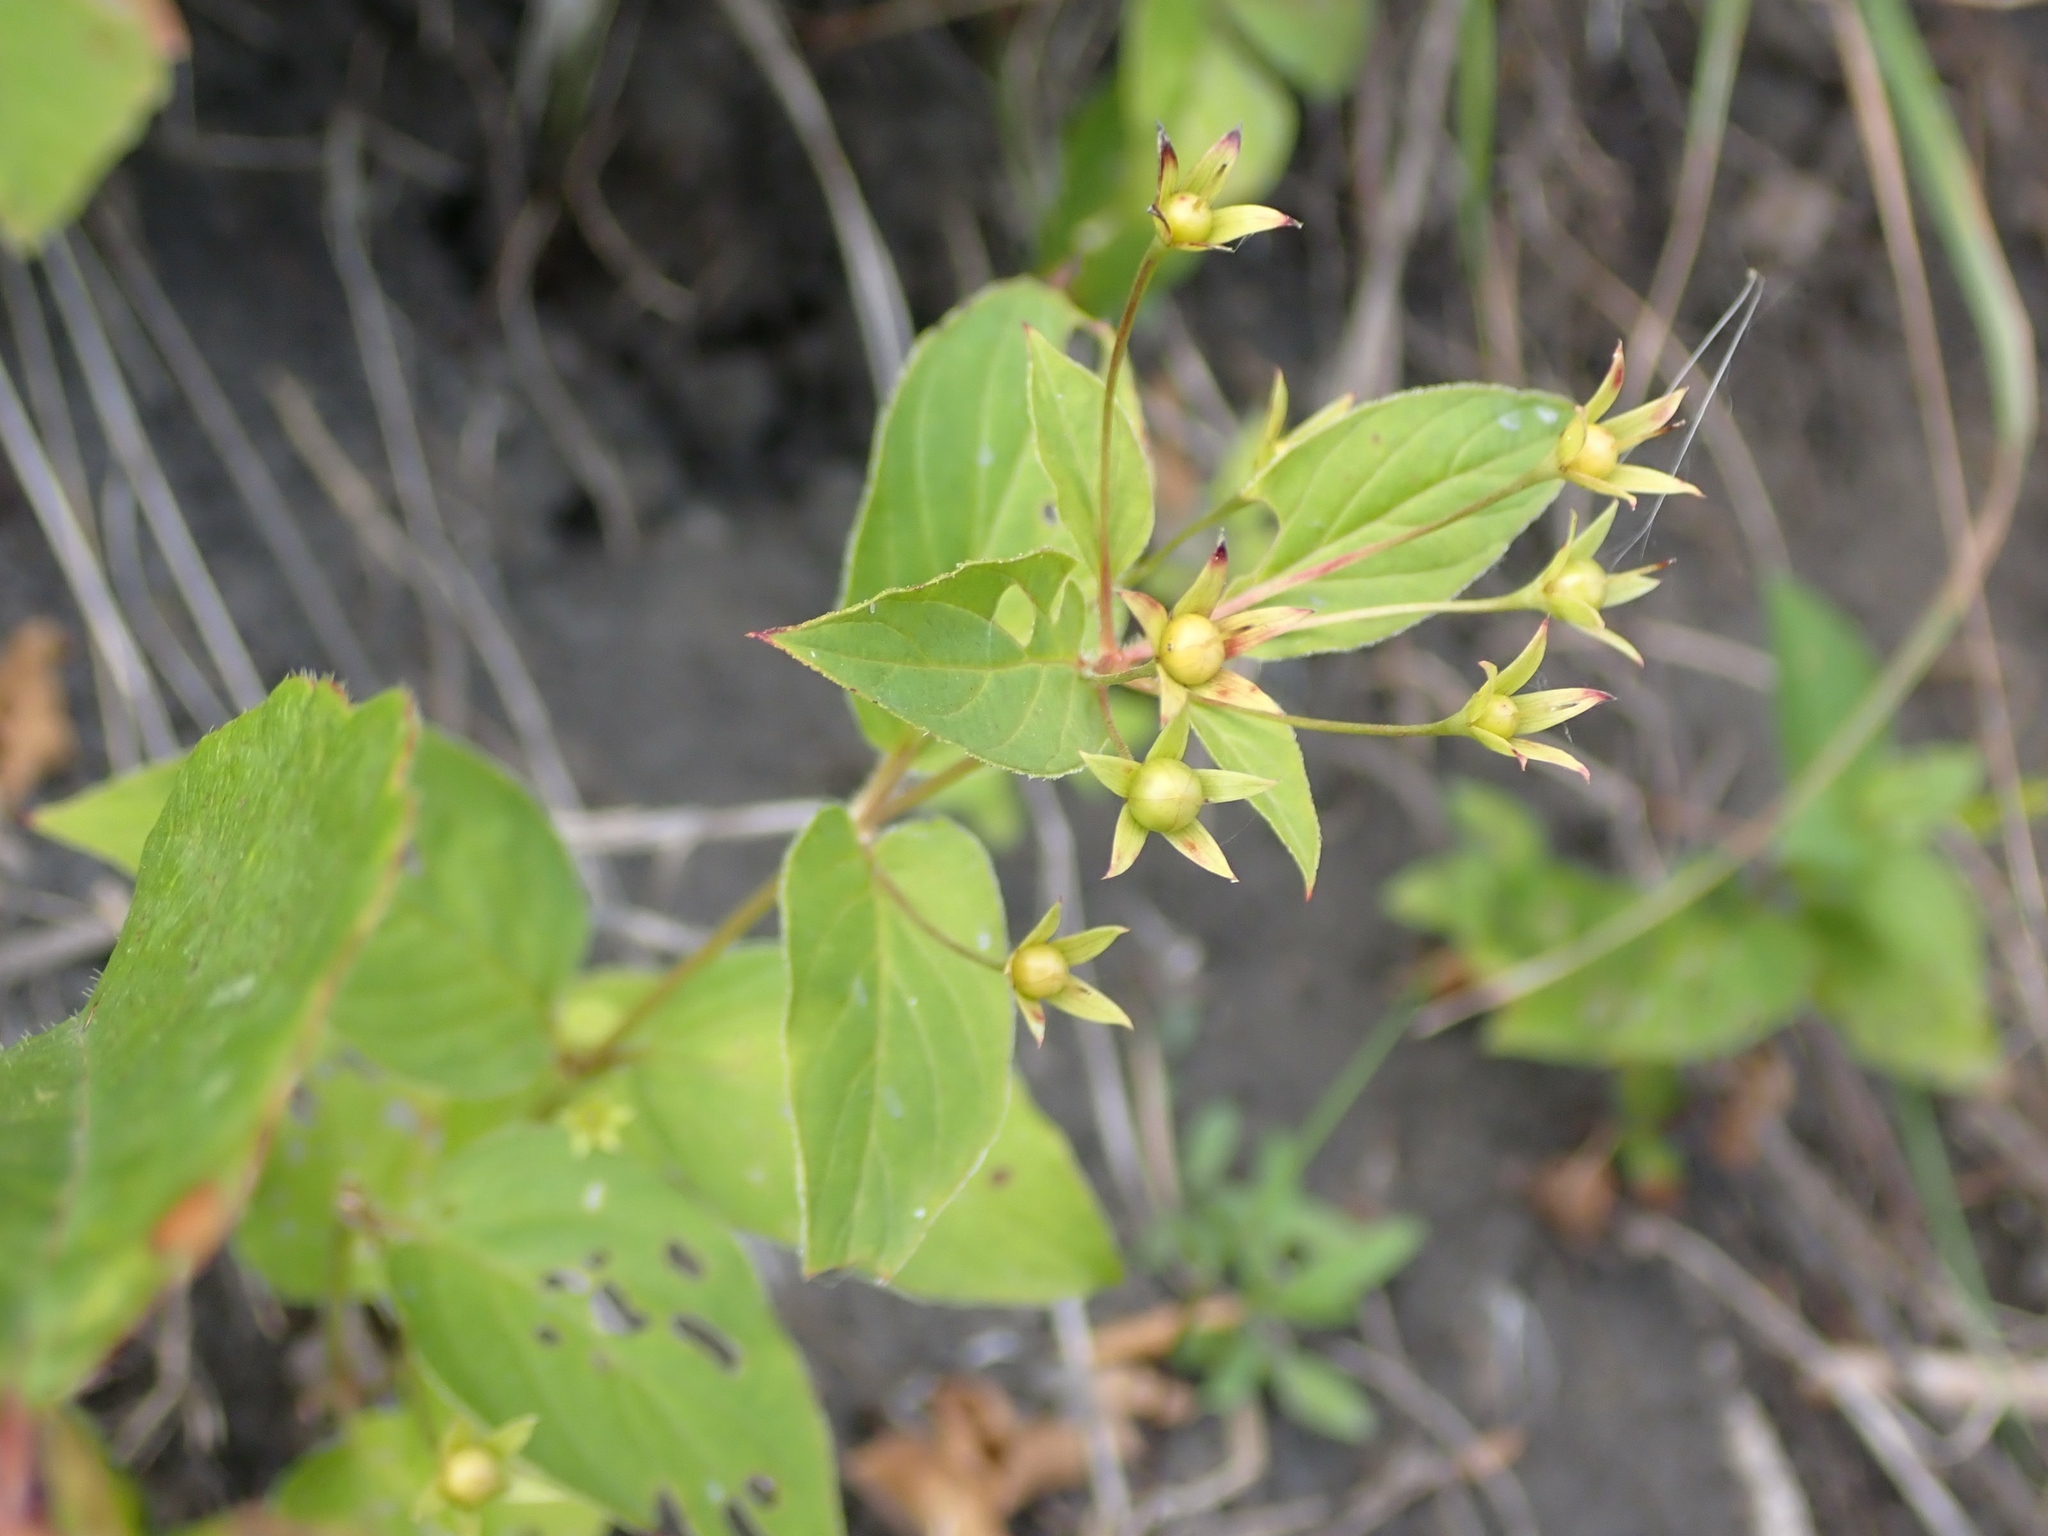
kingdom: Plantae
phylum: Tracheophyta
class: Magnoliopsida
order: Ericales
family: Primulaceae
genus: Lysimachia
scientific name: Lysimachia ciliata
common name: Fringed loosestrife
